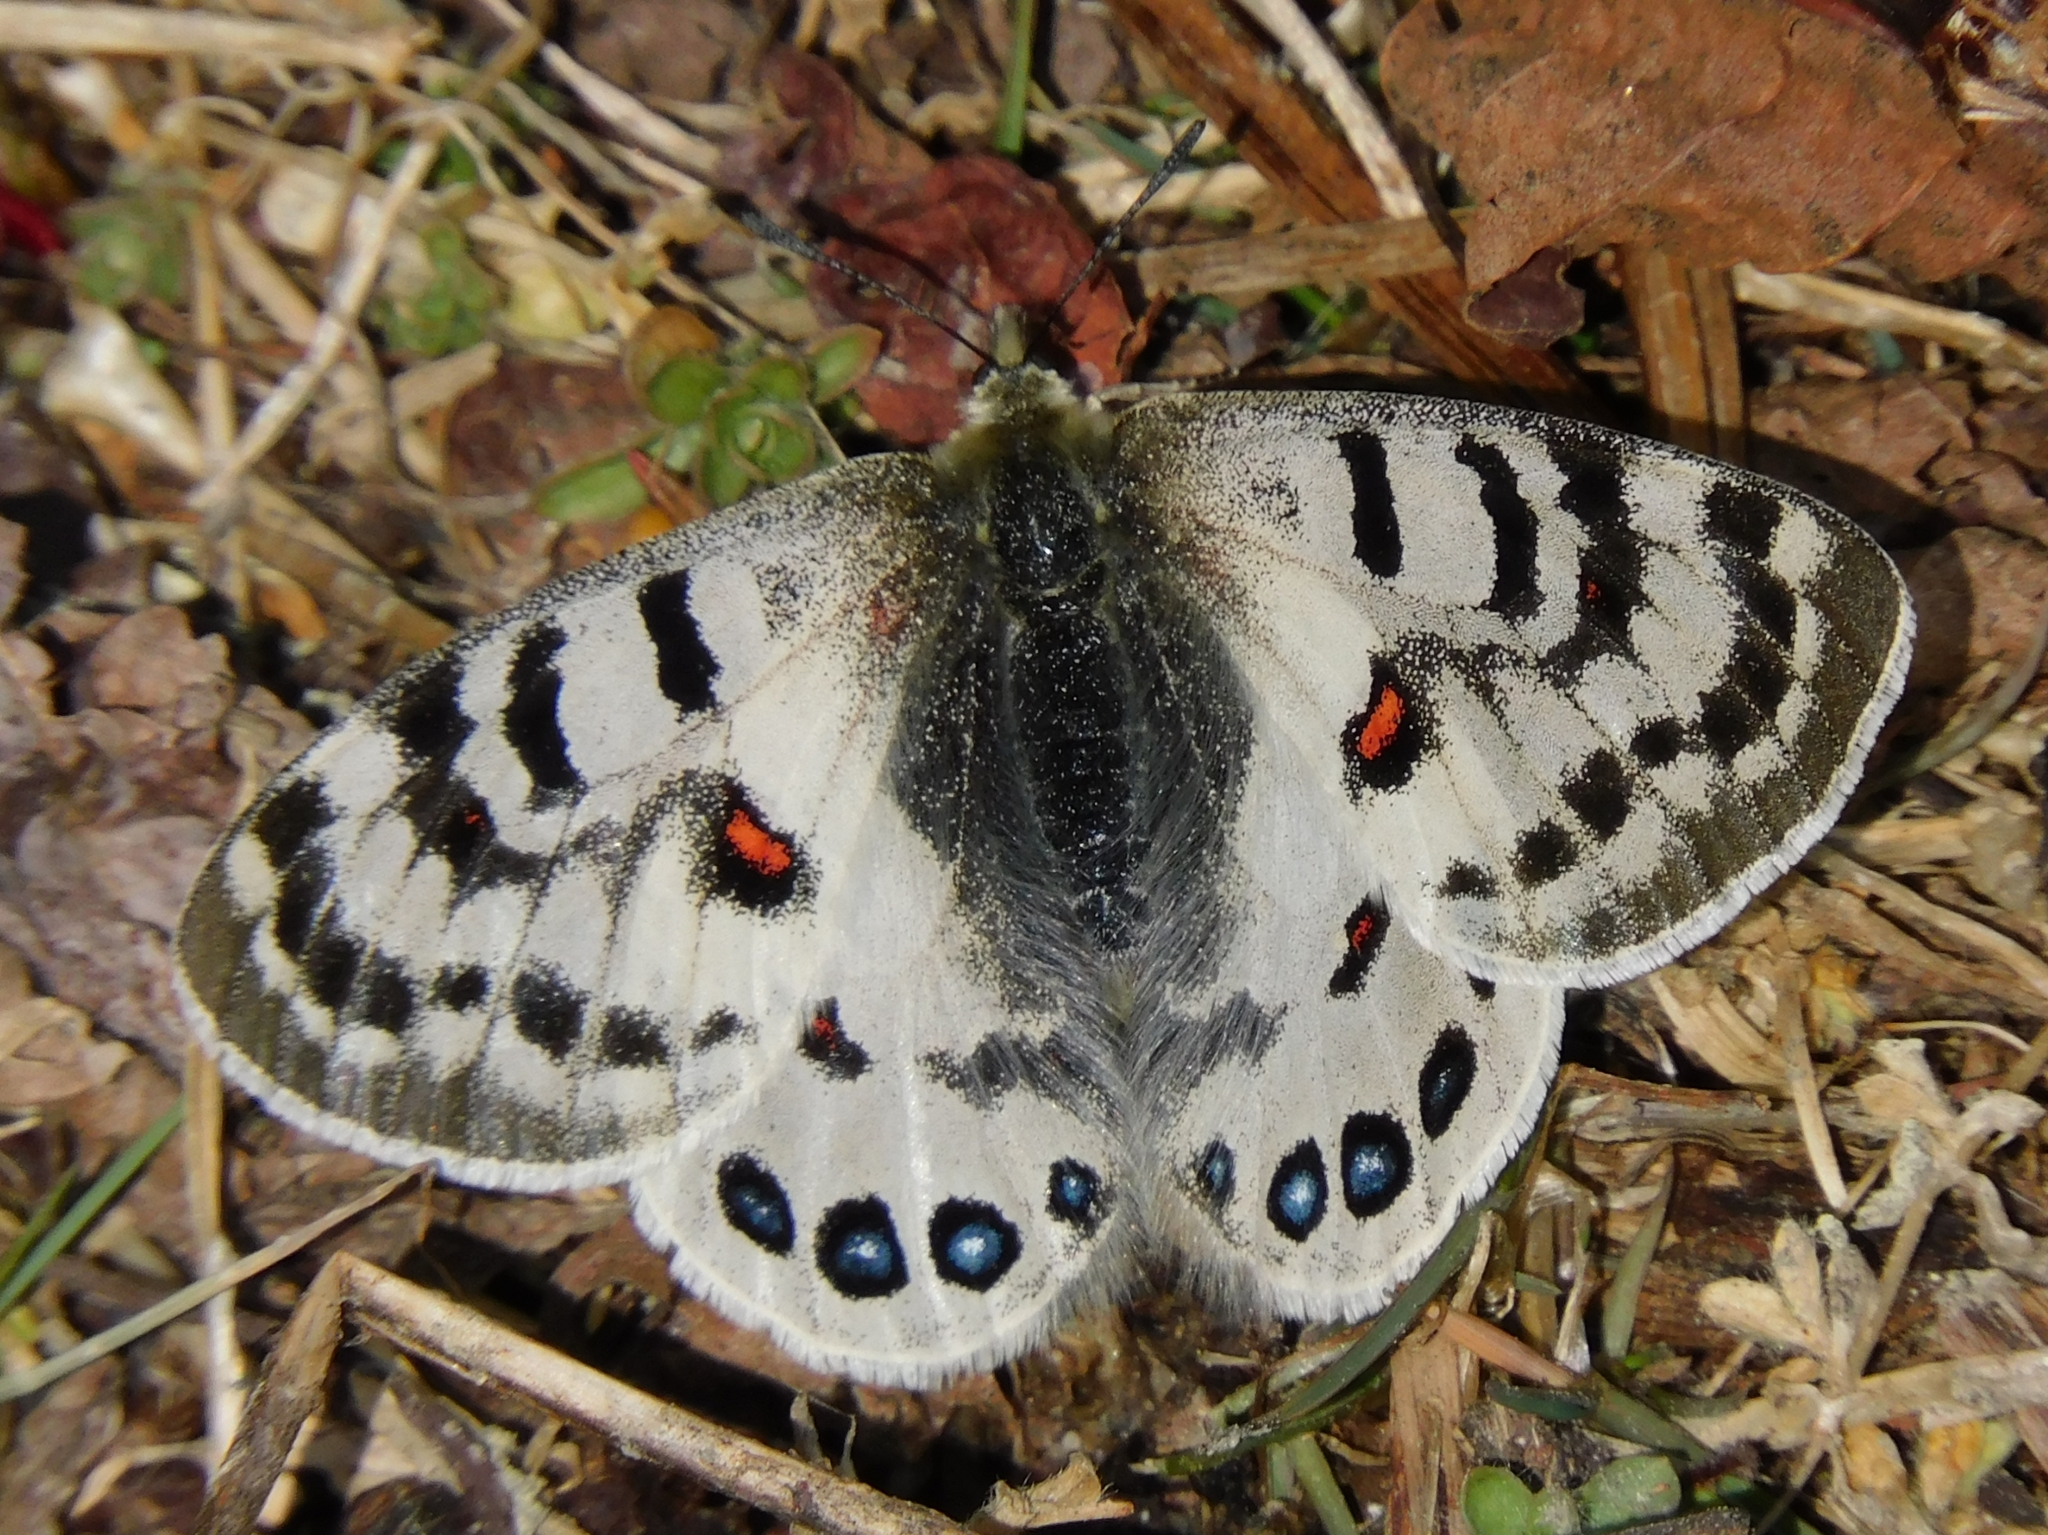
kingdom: Animalia
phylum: Arthropoda
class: Insecta
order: Lepidoptera
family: Papilionidae
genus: Parnassius
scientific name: Parnassius hardwickii
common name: Common blue apollo
